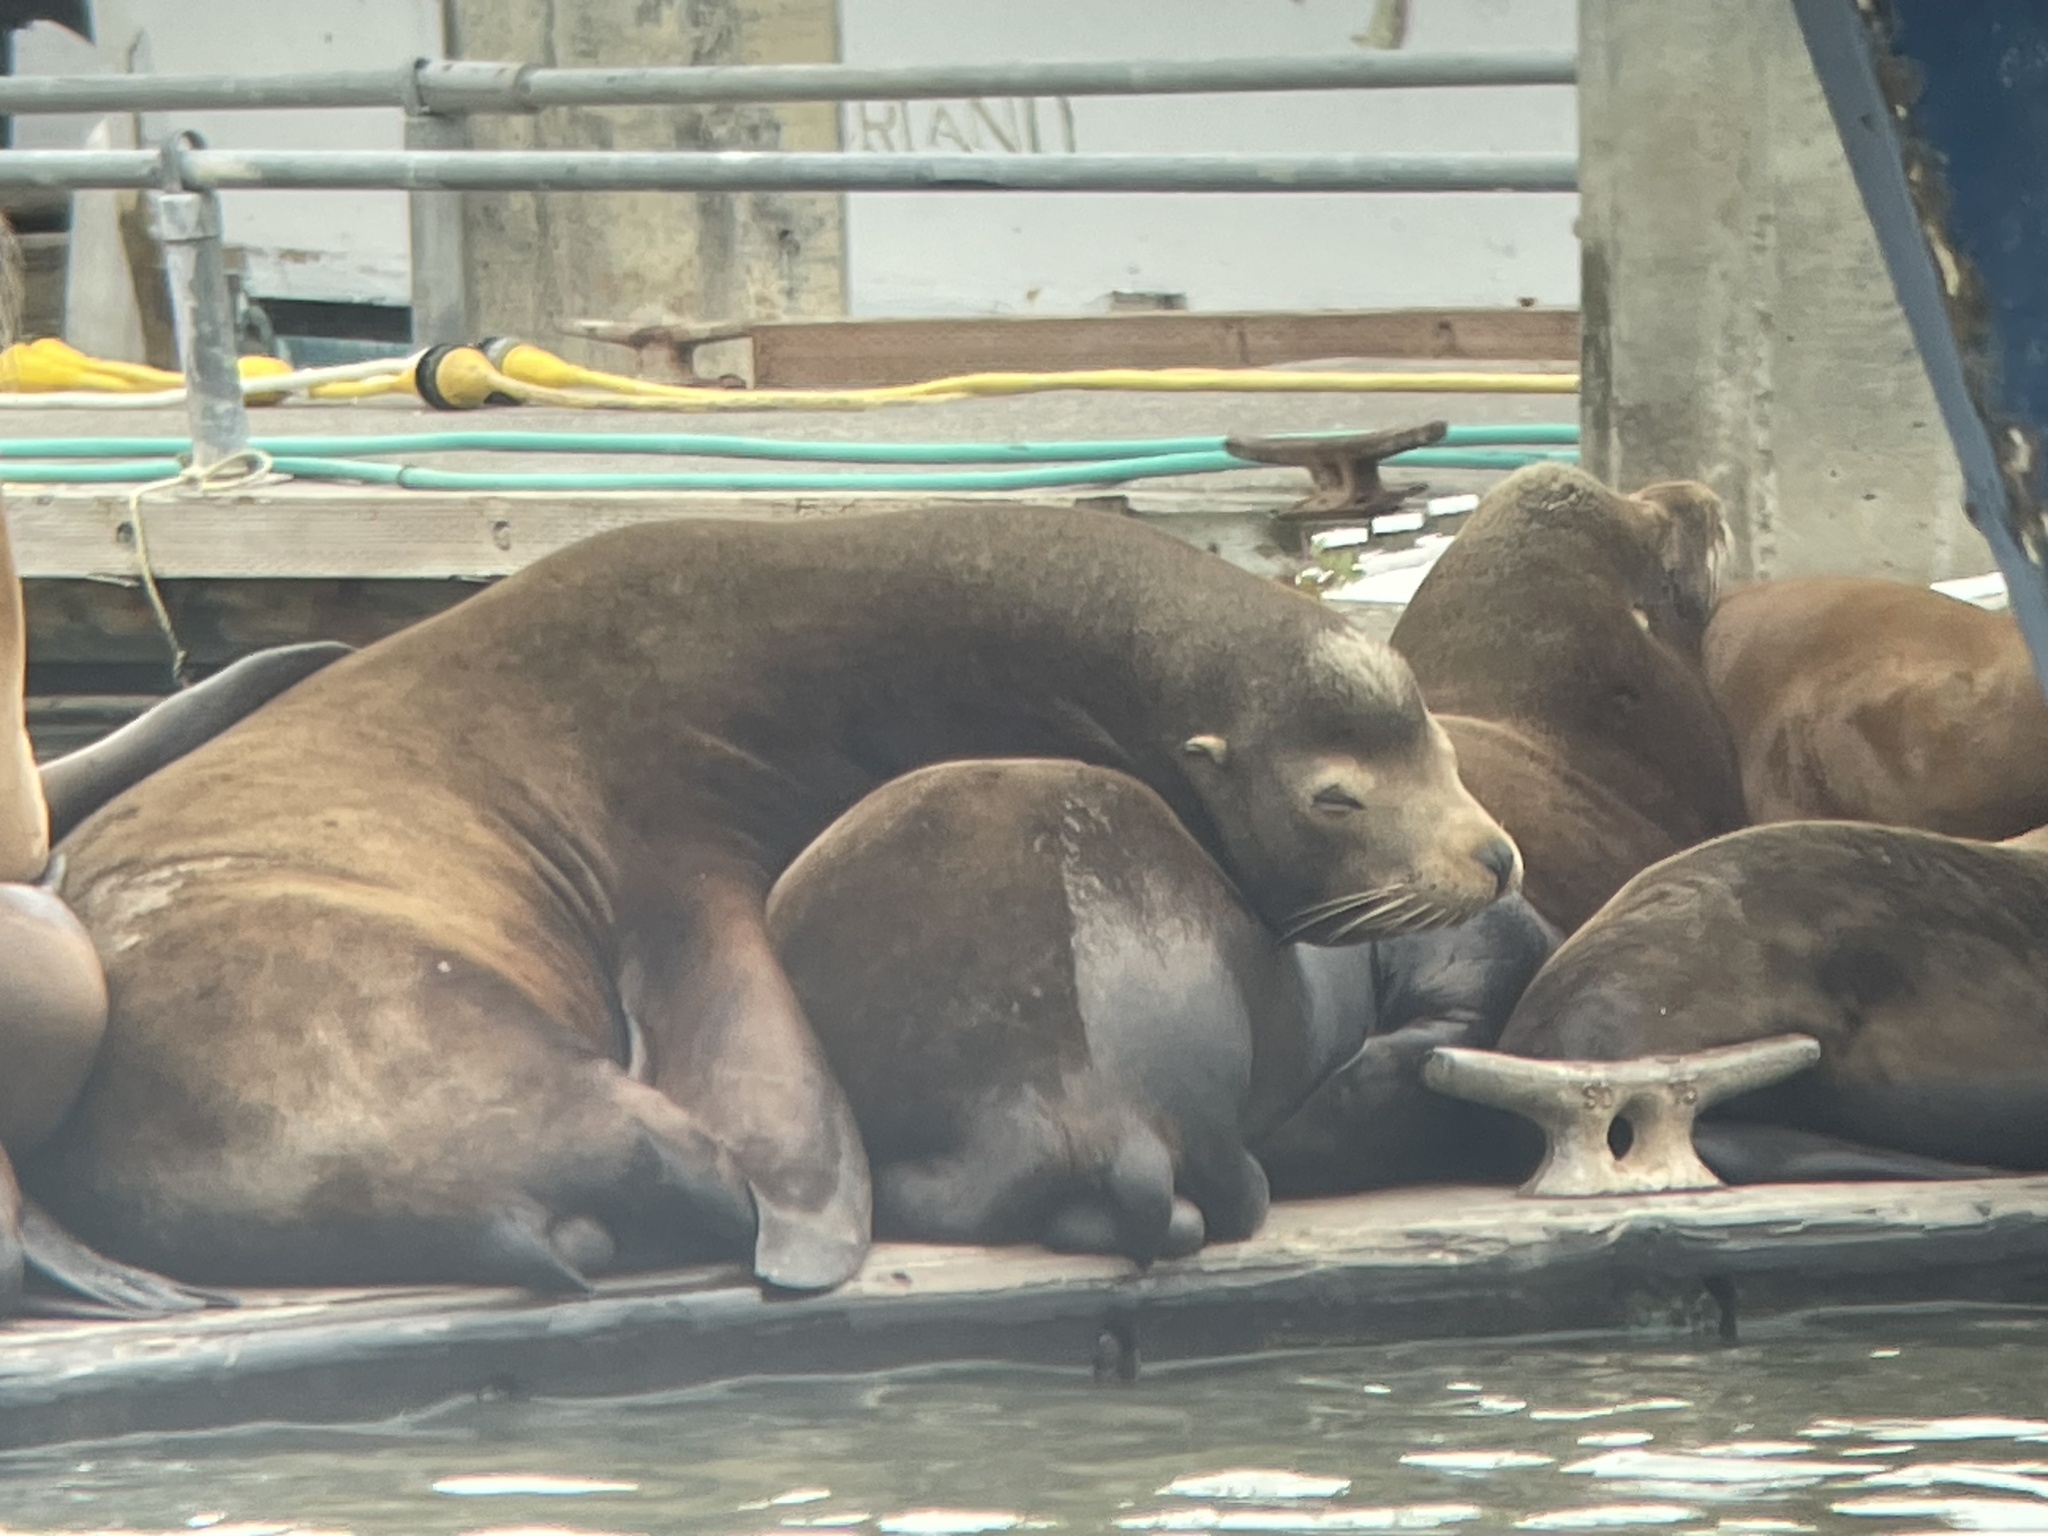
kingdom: Animalia
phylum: Chordata
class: Mammalia
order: Carnivora
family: Otariidae
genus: Zalophus
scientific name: Zalophus californianus
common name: California sea lion
